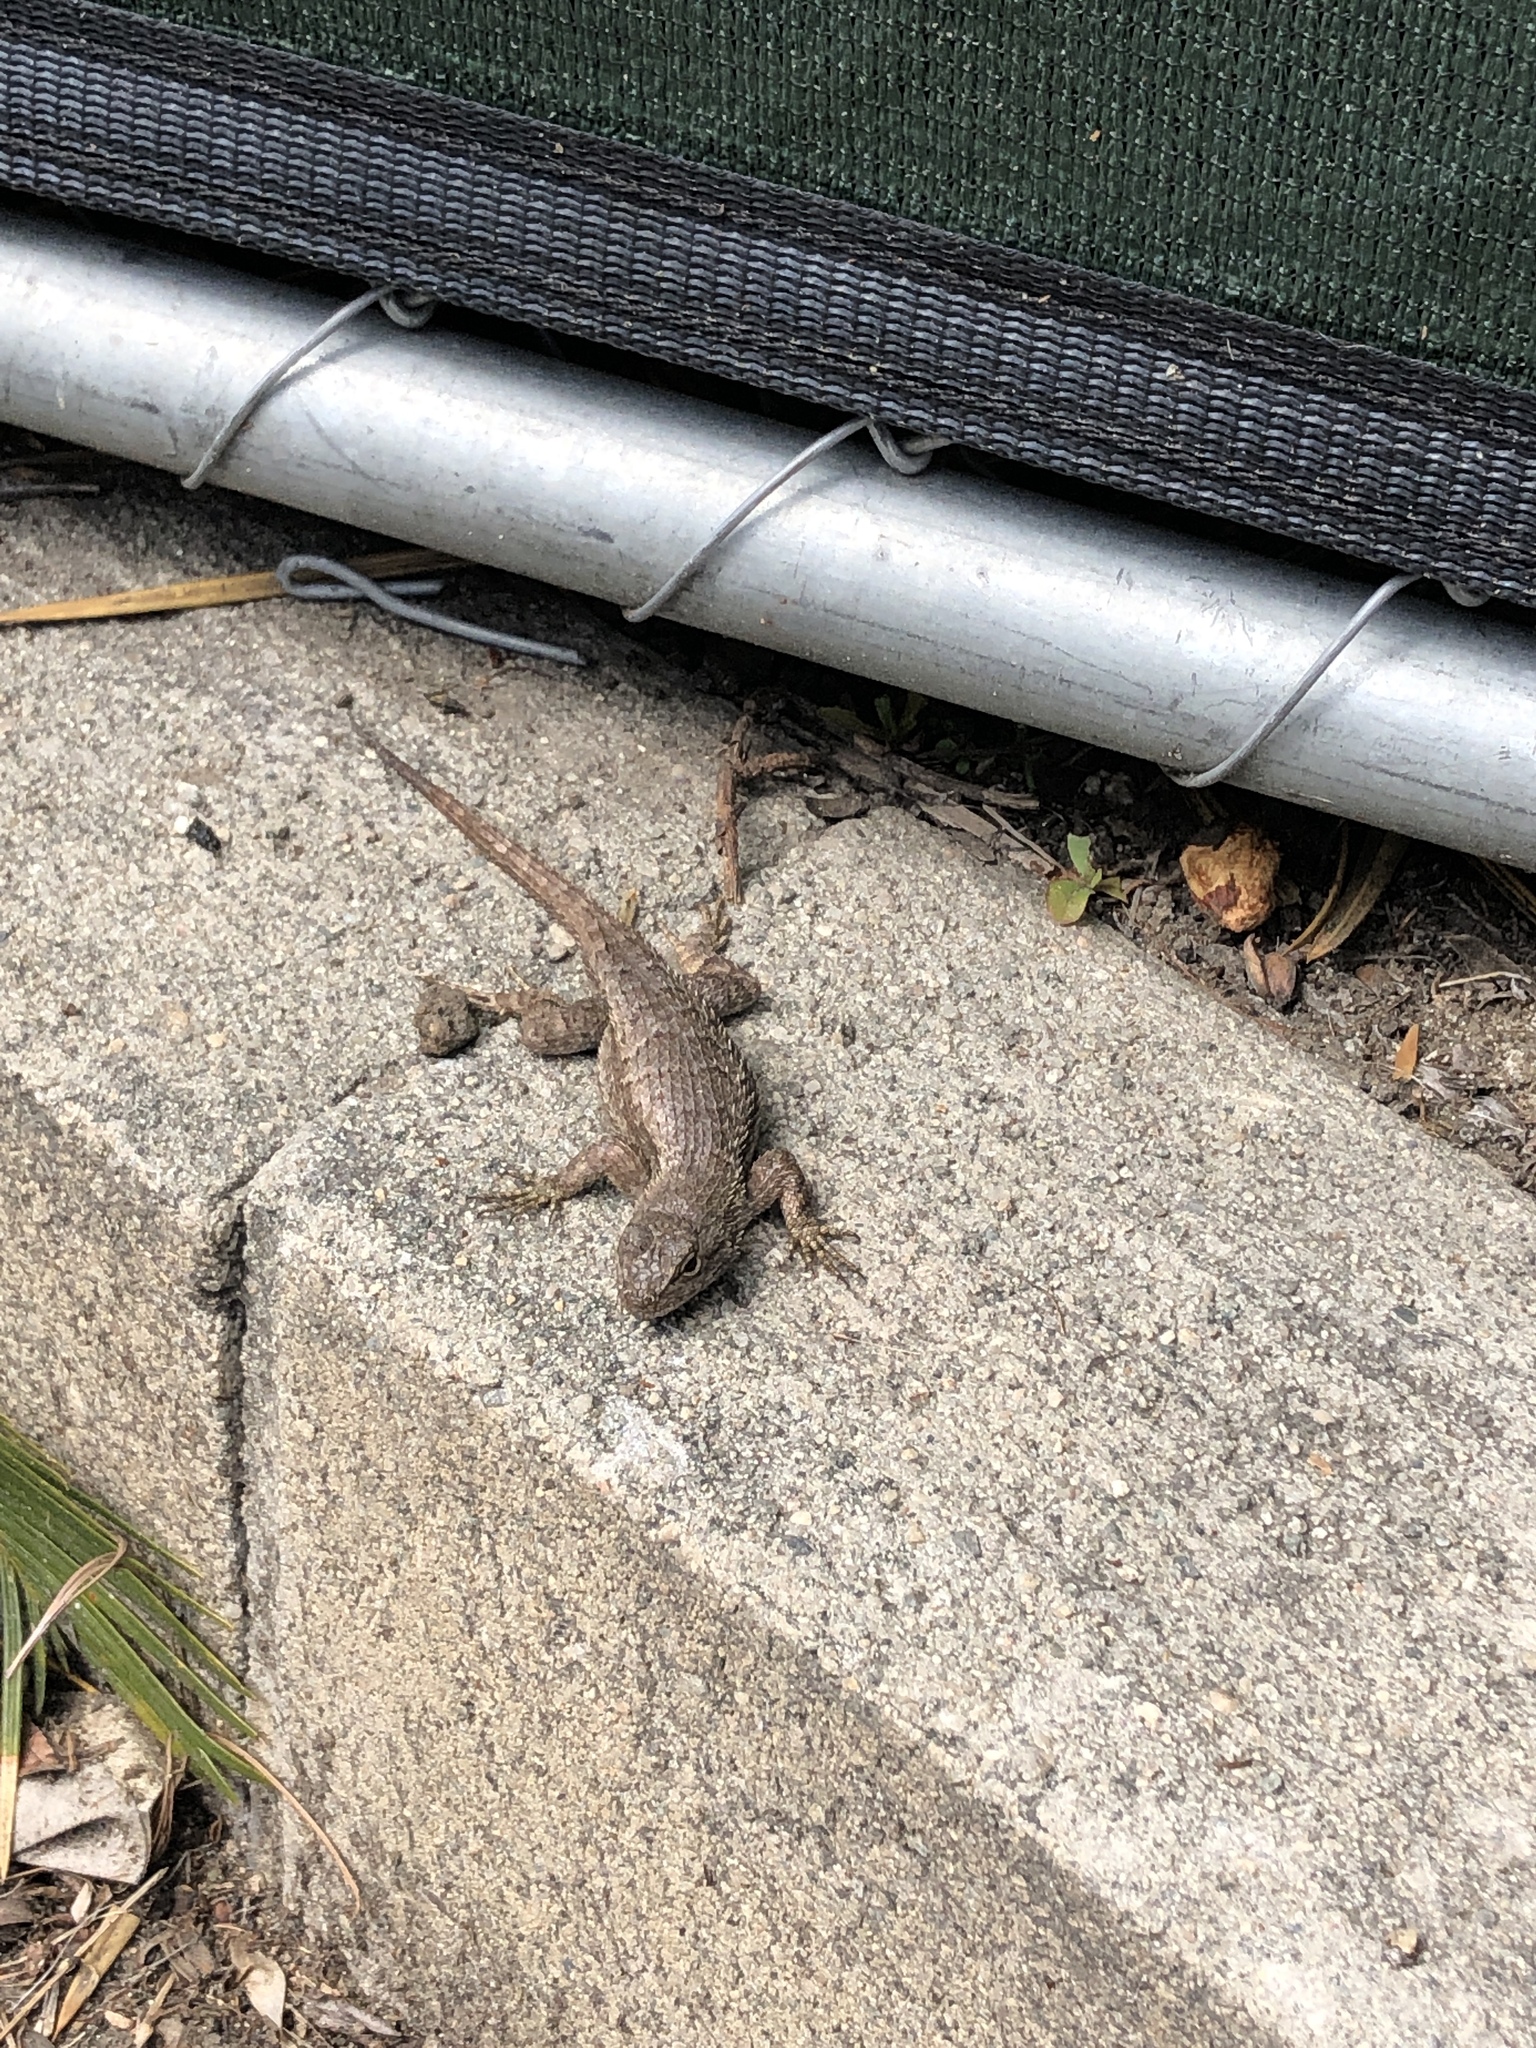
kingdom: Animalia
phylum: Chordata
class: Squamata
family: Phrynosomatidae
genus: Sceloporus
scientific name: Sceloporus occidentalis
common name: Western fence lizard
